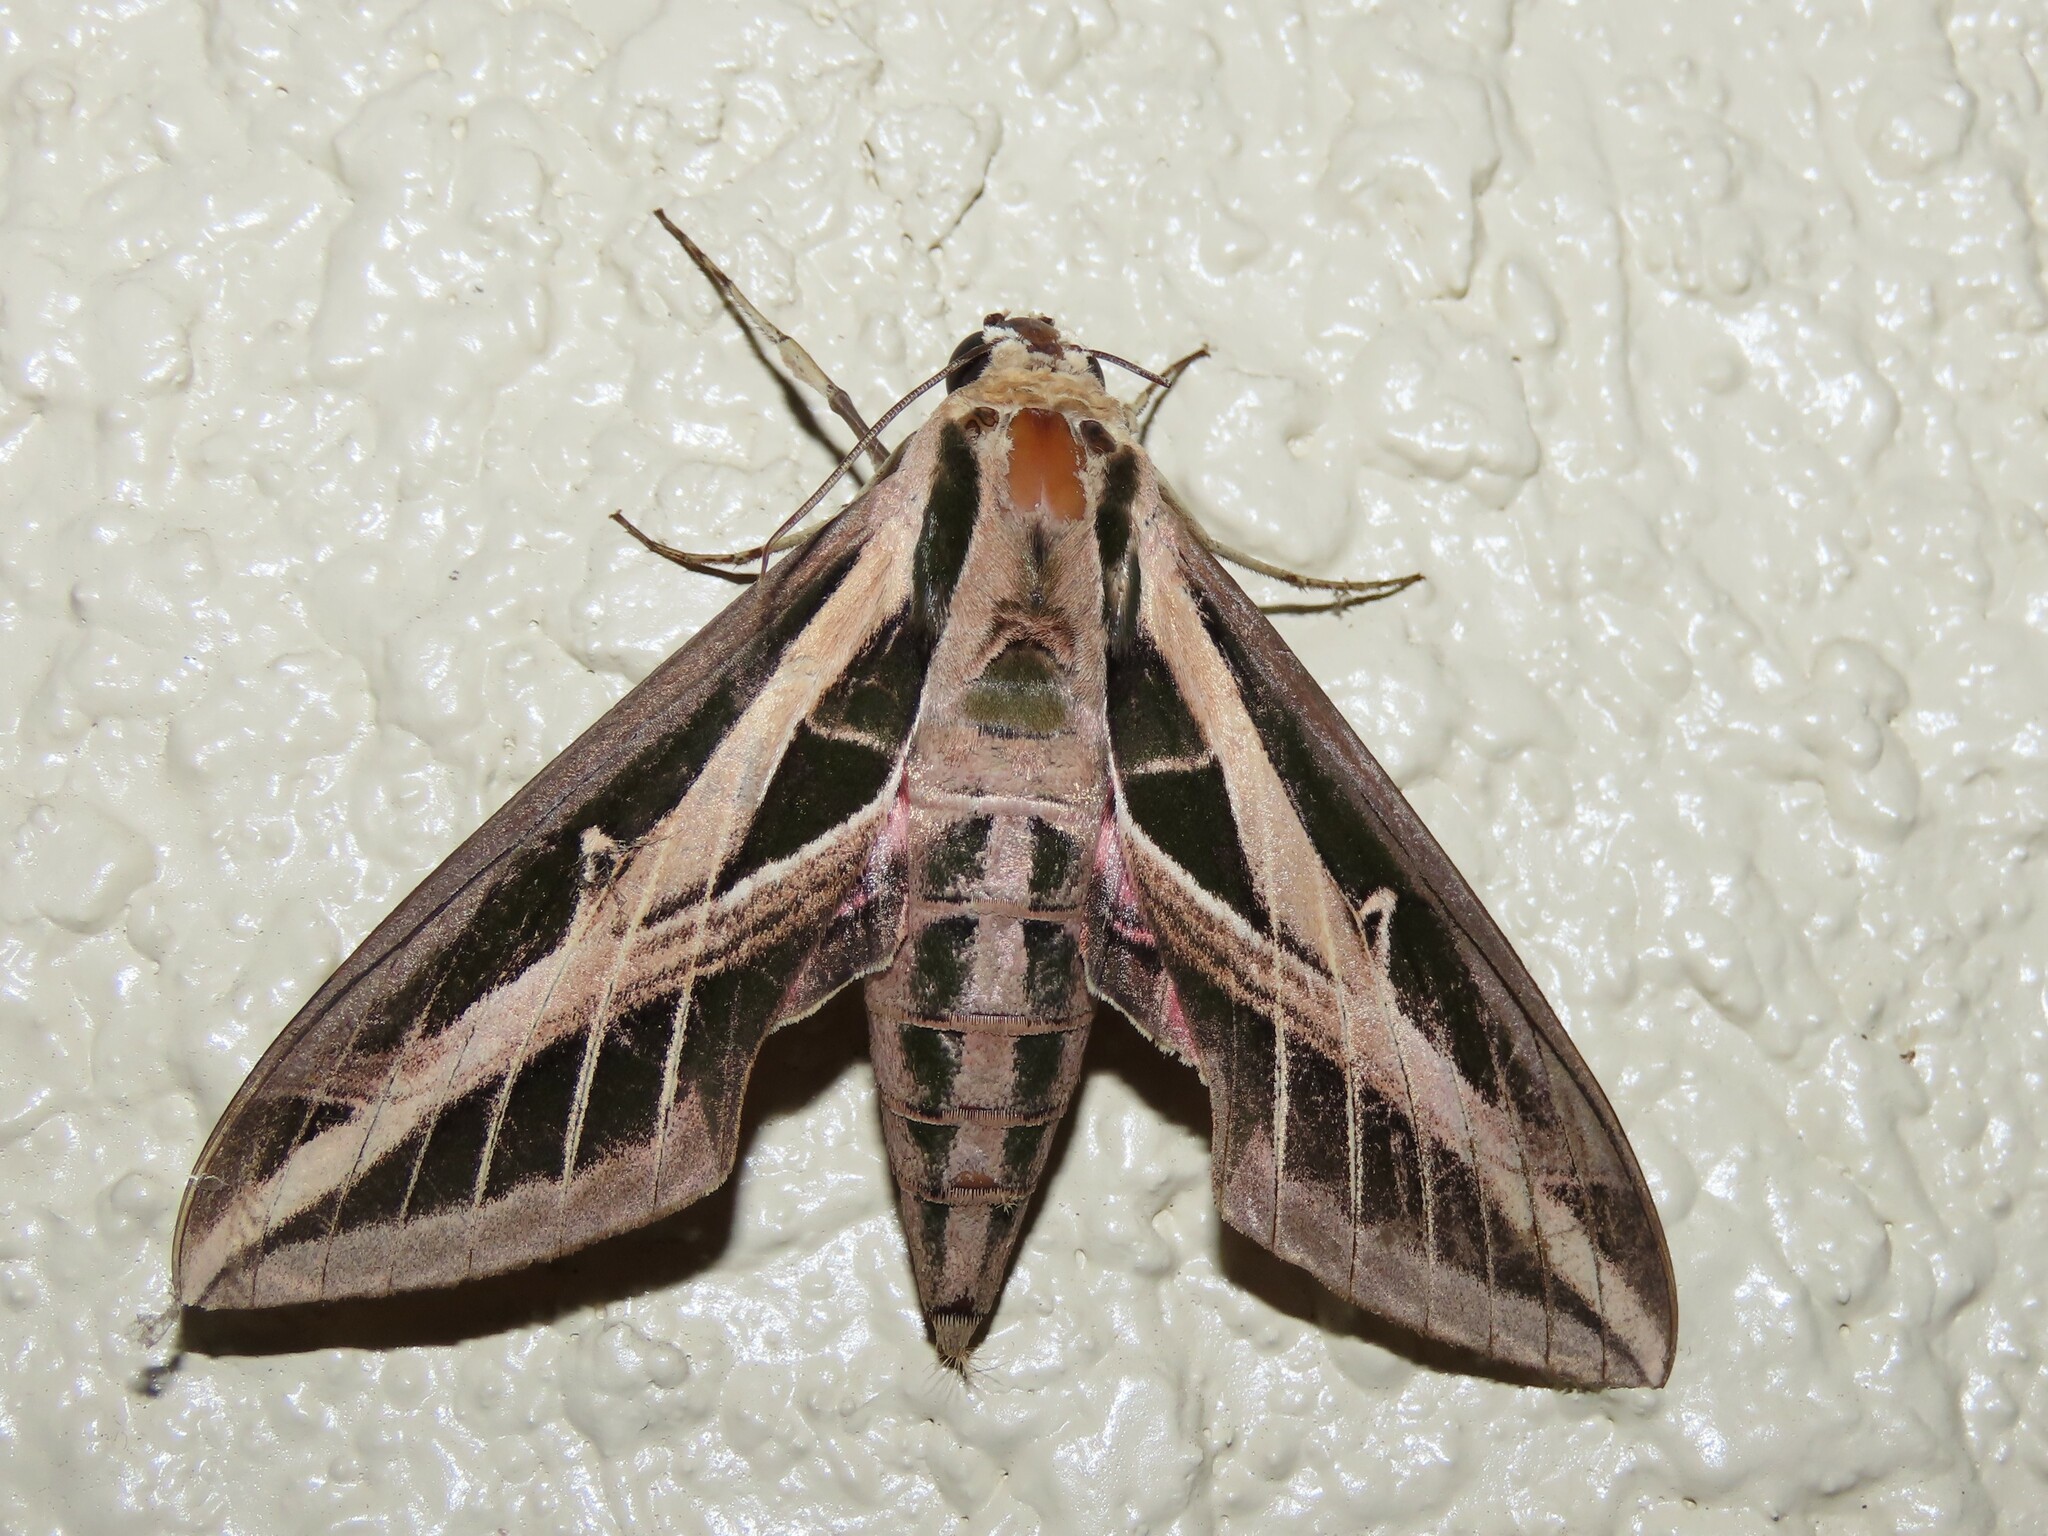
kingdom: Animalia
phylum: Arthropoda
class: Insecta
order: Lepidoptera
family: Sphingidae
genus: Eumorpha
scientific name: Eumorpha fasciatus
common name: Banded sphinx
